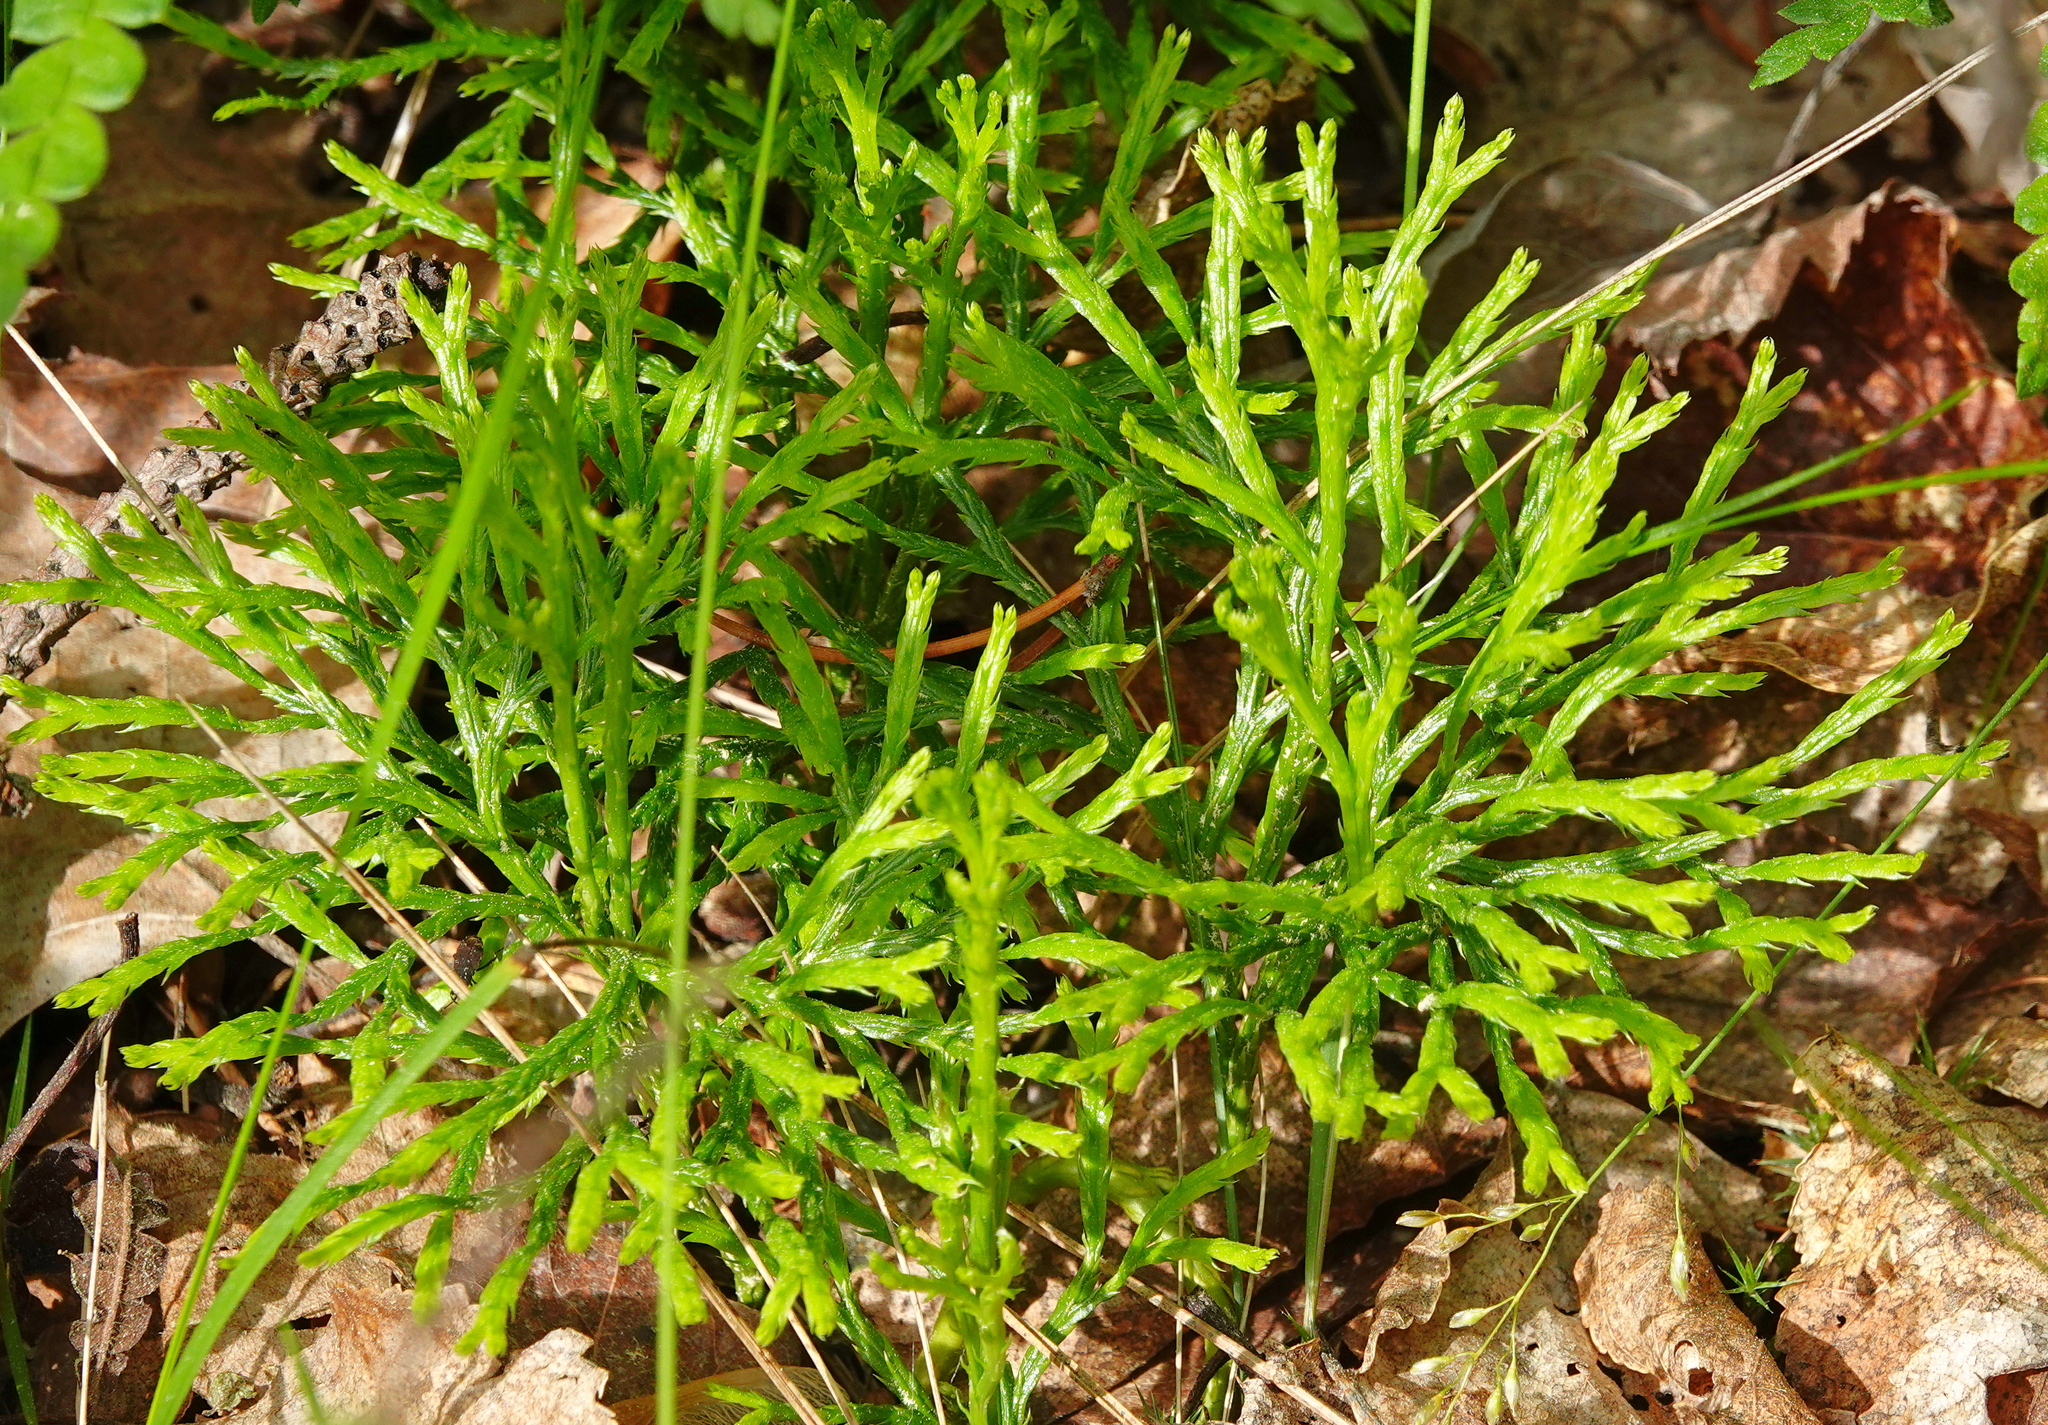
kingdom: Plantae
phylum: Tracheophyta
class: Lycopodiopsida
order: Lycopodiales
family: Lycopodiaceae
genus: Diphasiastrum
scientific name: Diphasiastrum complanatum
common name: Northern running-pine
